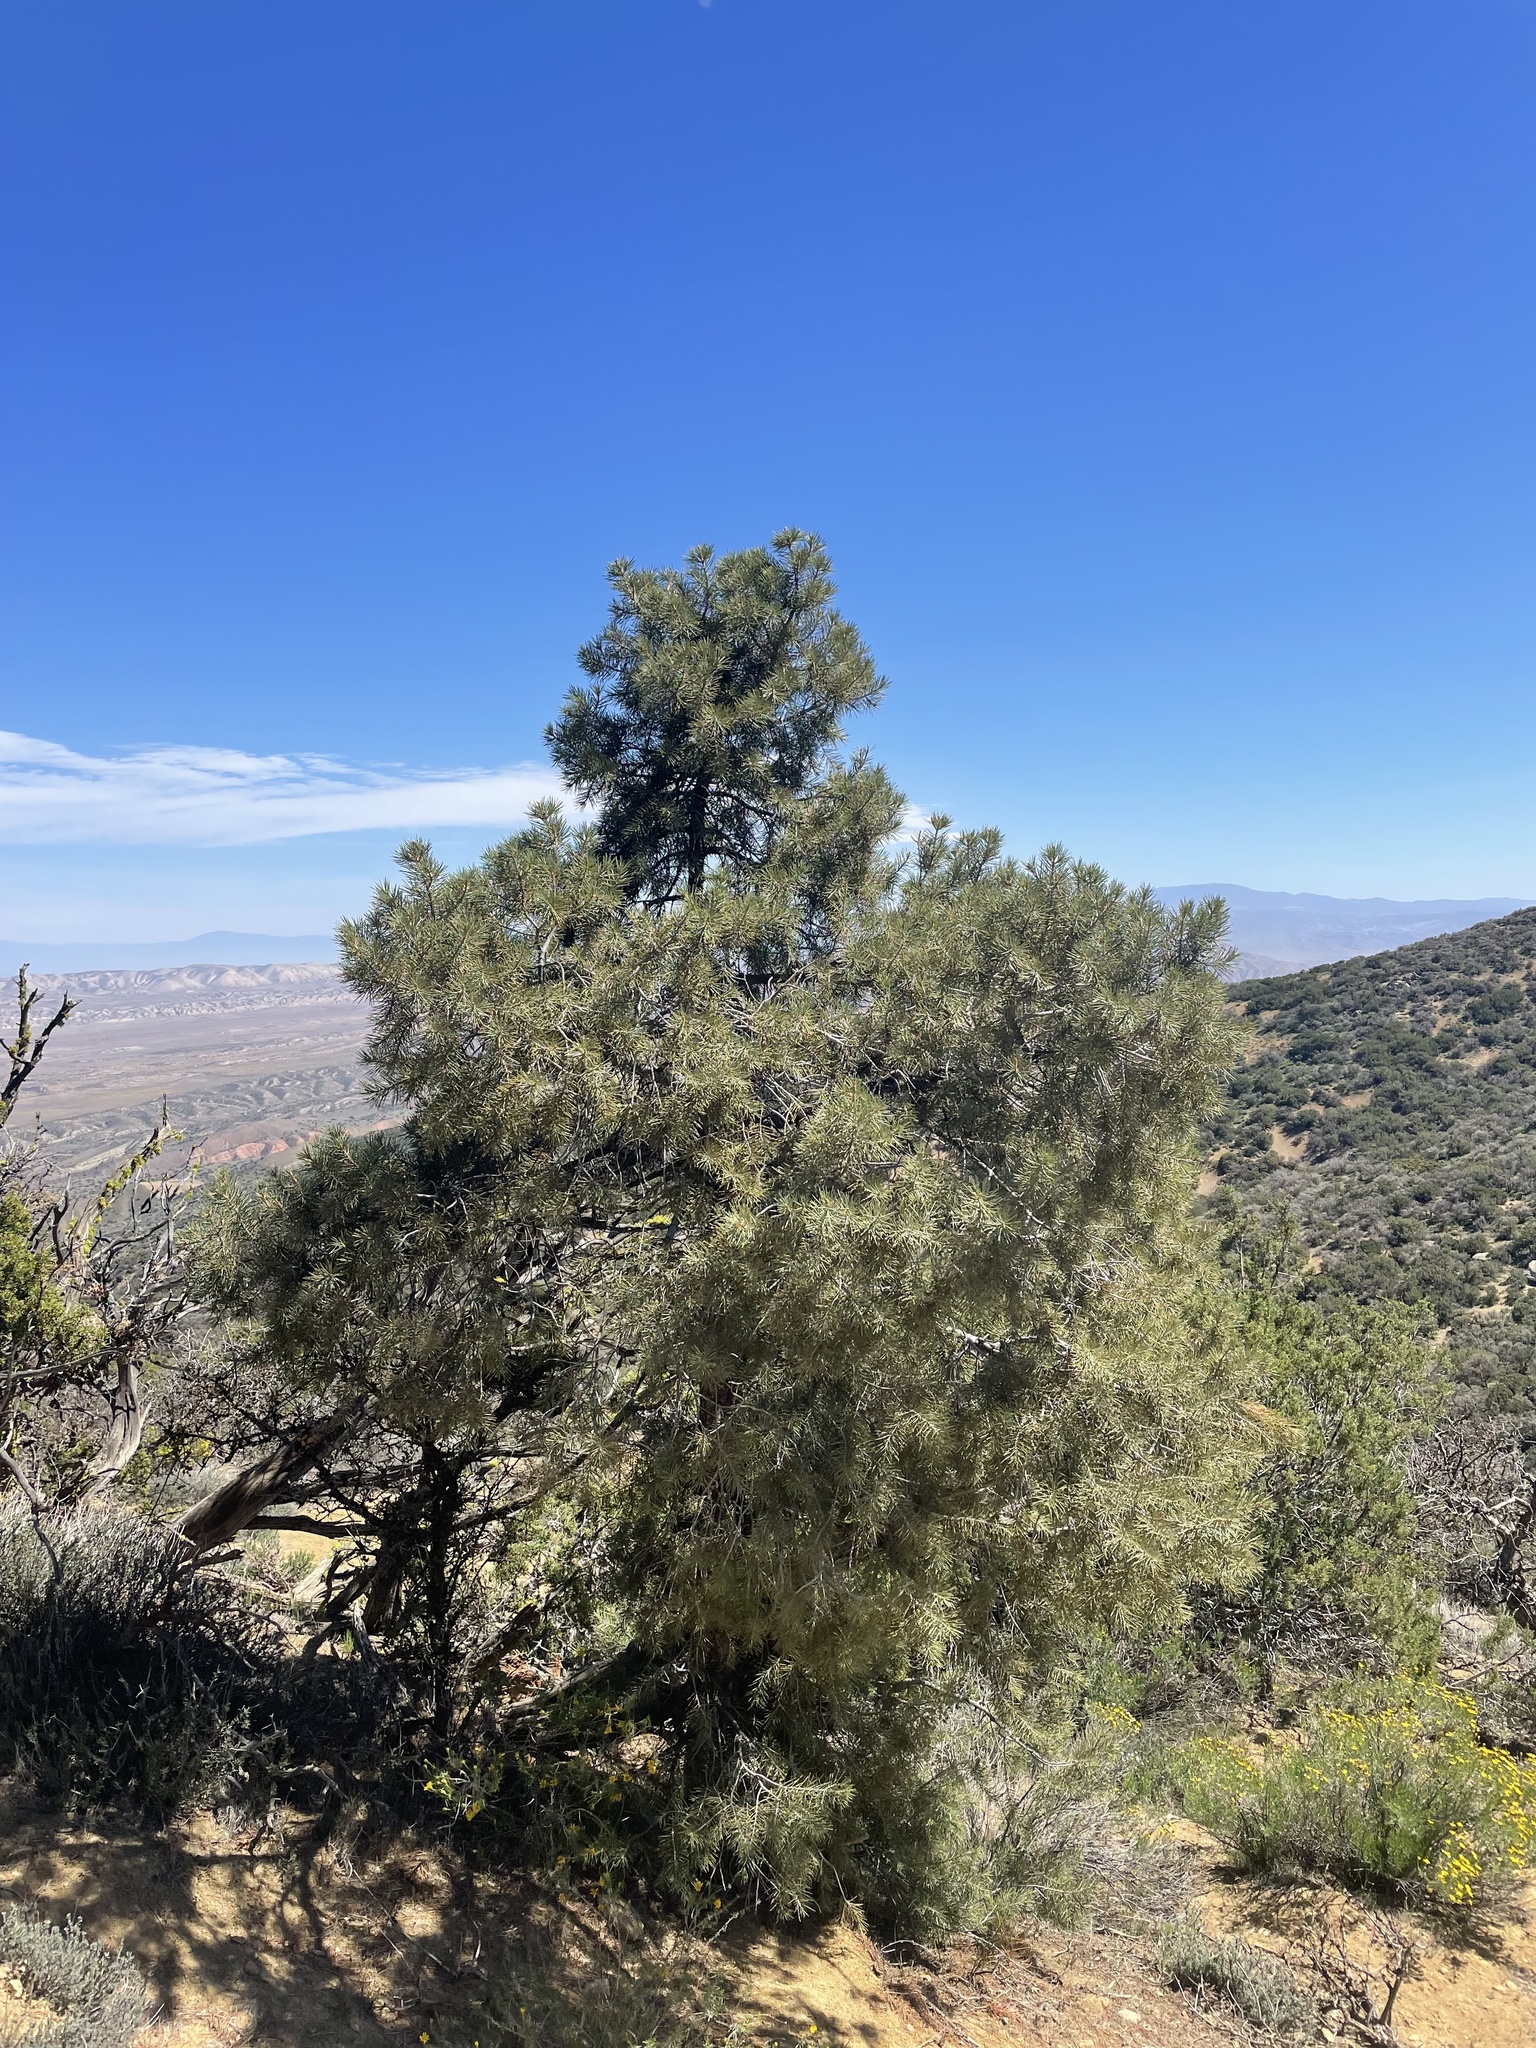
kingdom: Plantae
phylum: Tracheophyta
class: Pinopsida
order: Pinales
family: Pinaceae
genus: Pinus
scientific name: Pinus monophylla
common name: One-leaved nut pine
